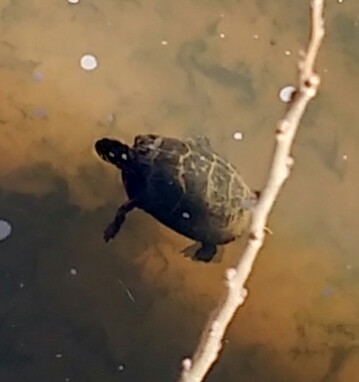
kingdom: Animalia
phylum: Chordata
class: Testudines
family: Emydidae
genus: Chrysemys
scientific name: Chrysemys picta
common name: Painted turtle
